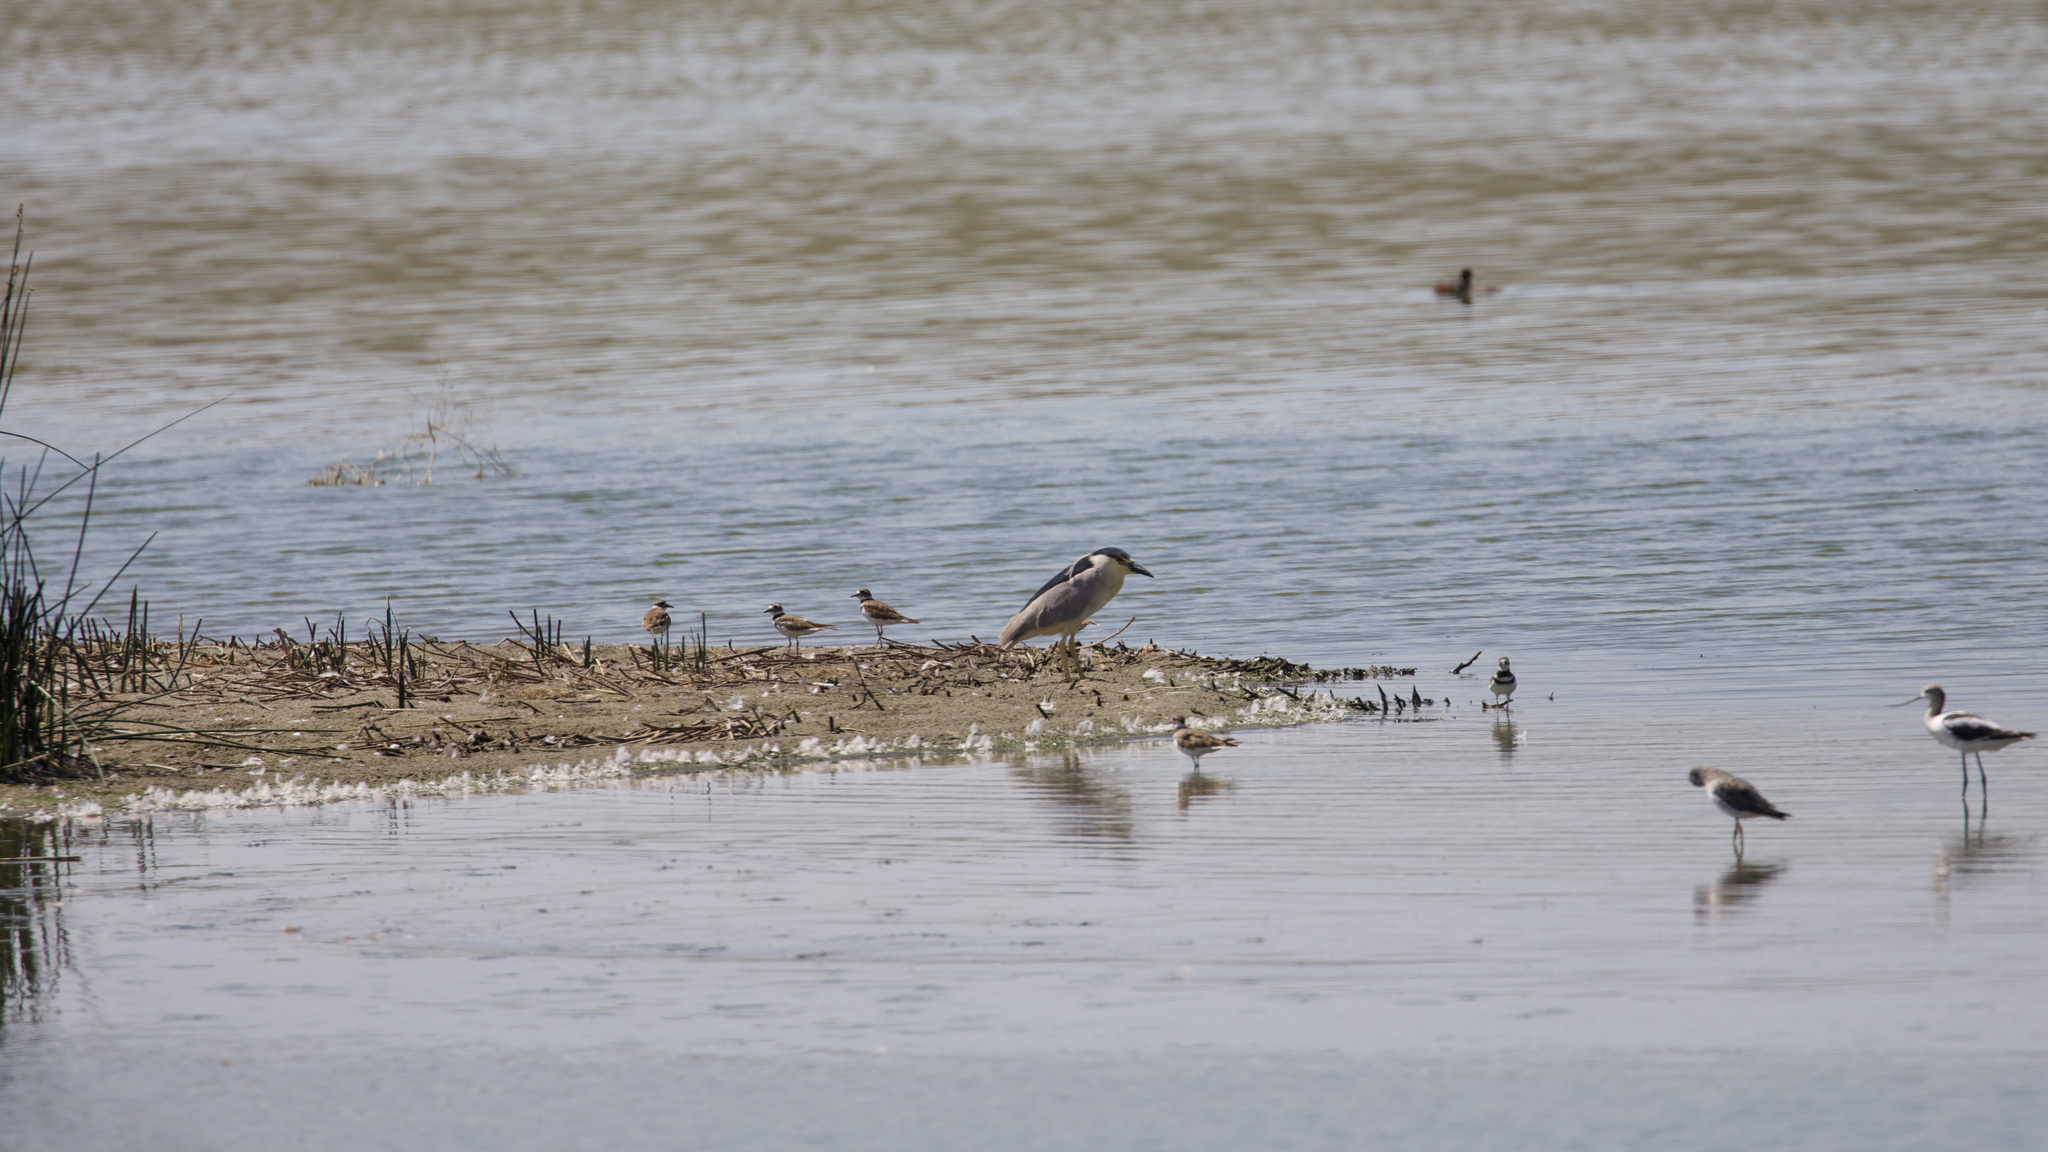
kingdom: Animalia
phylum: Chordata
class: Aves
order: Charadriiformes
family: Charadriidae
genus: Charadrius
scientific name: Charadrius vociferus
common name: Killdeer
